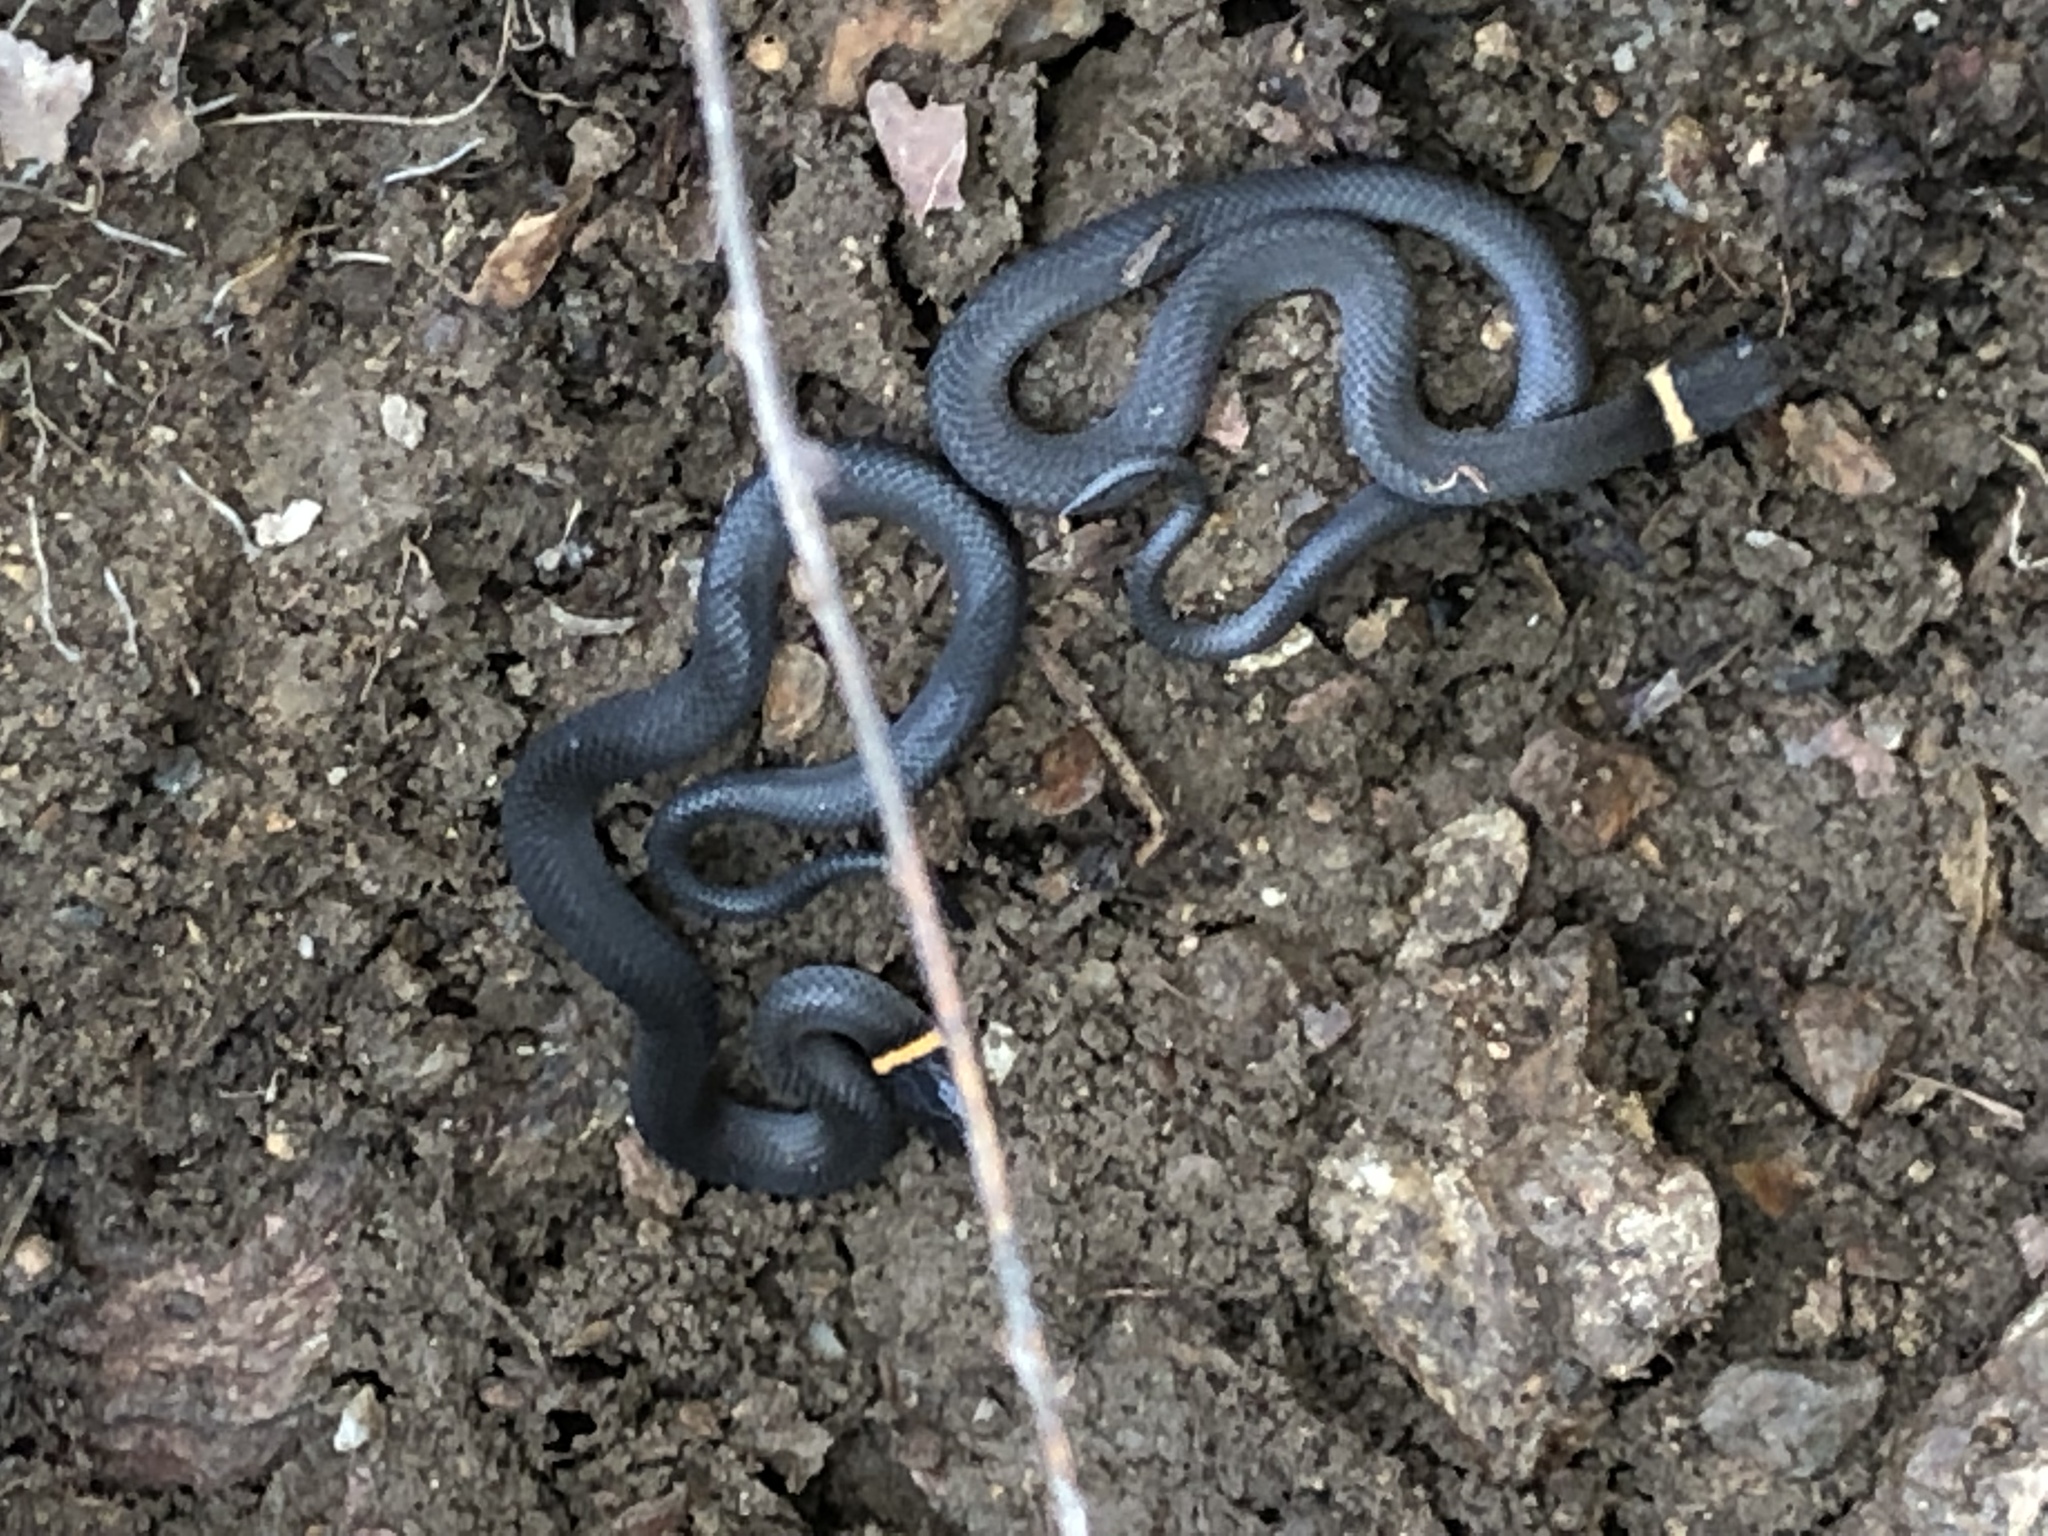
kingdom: Animalia
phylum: Chordata
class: Squamata
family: Colubridae
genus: Diadophis
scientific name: Diadophis punctatus
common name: Ringneck snake
